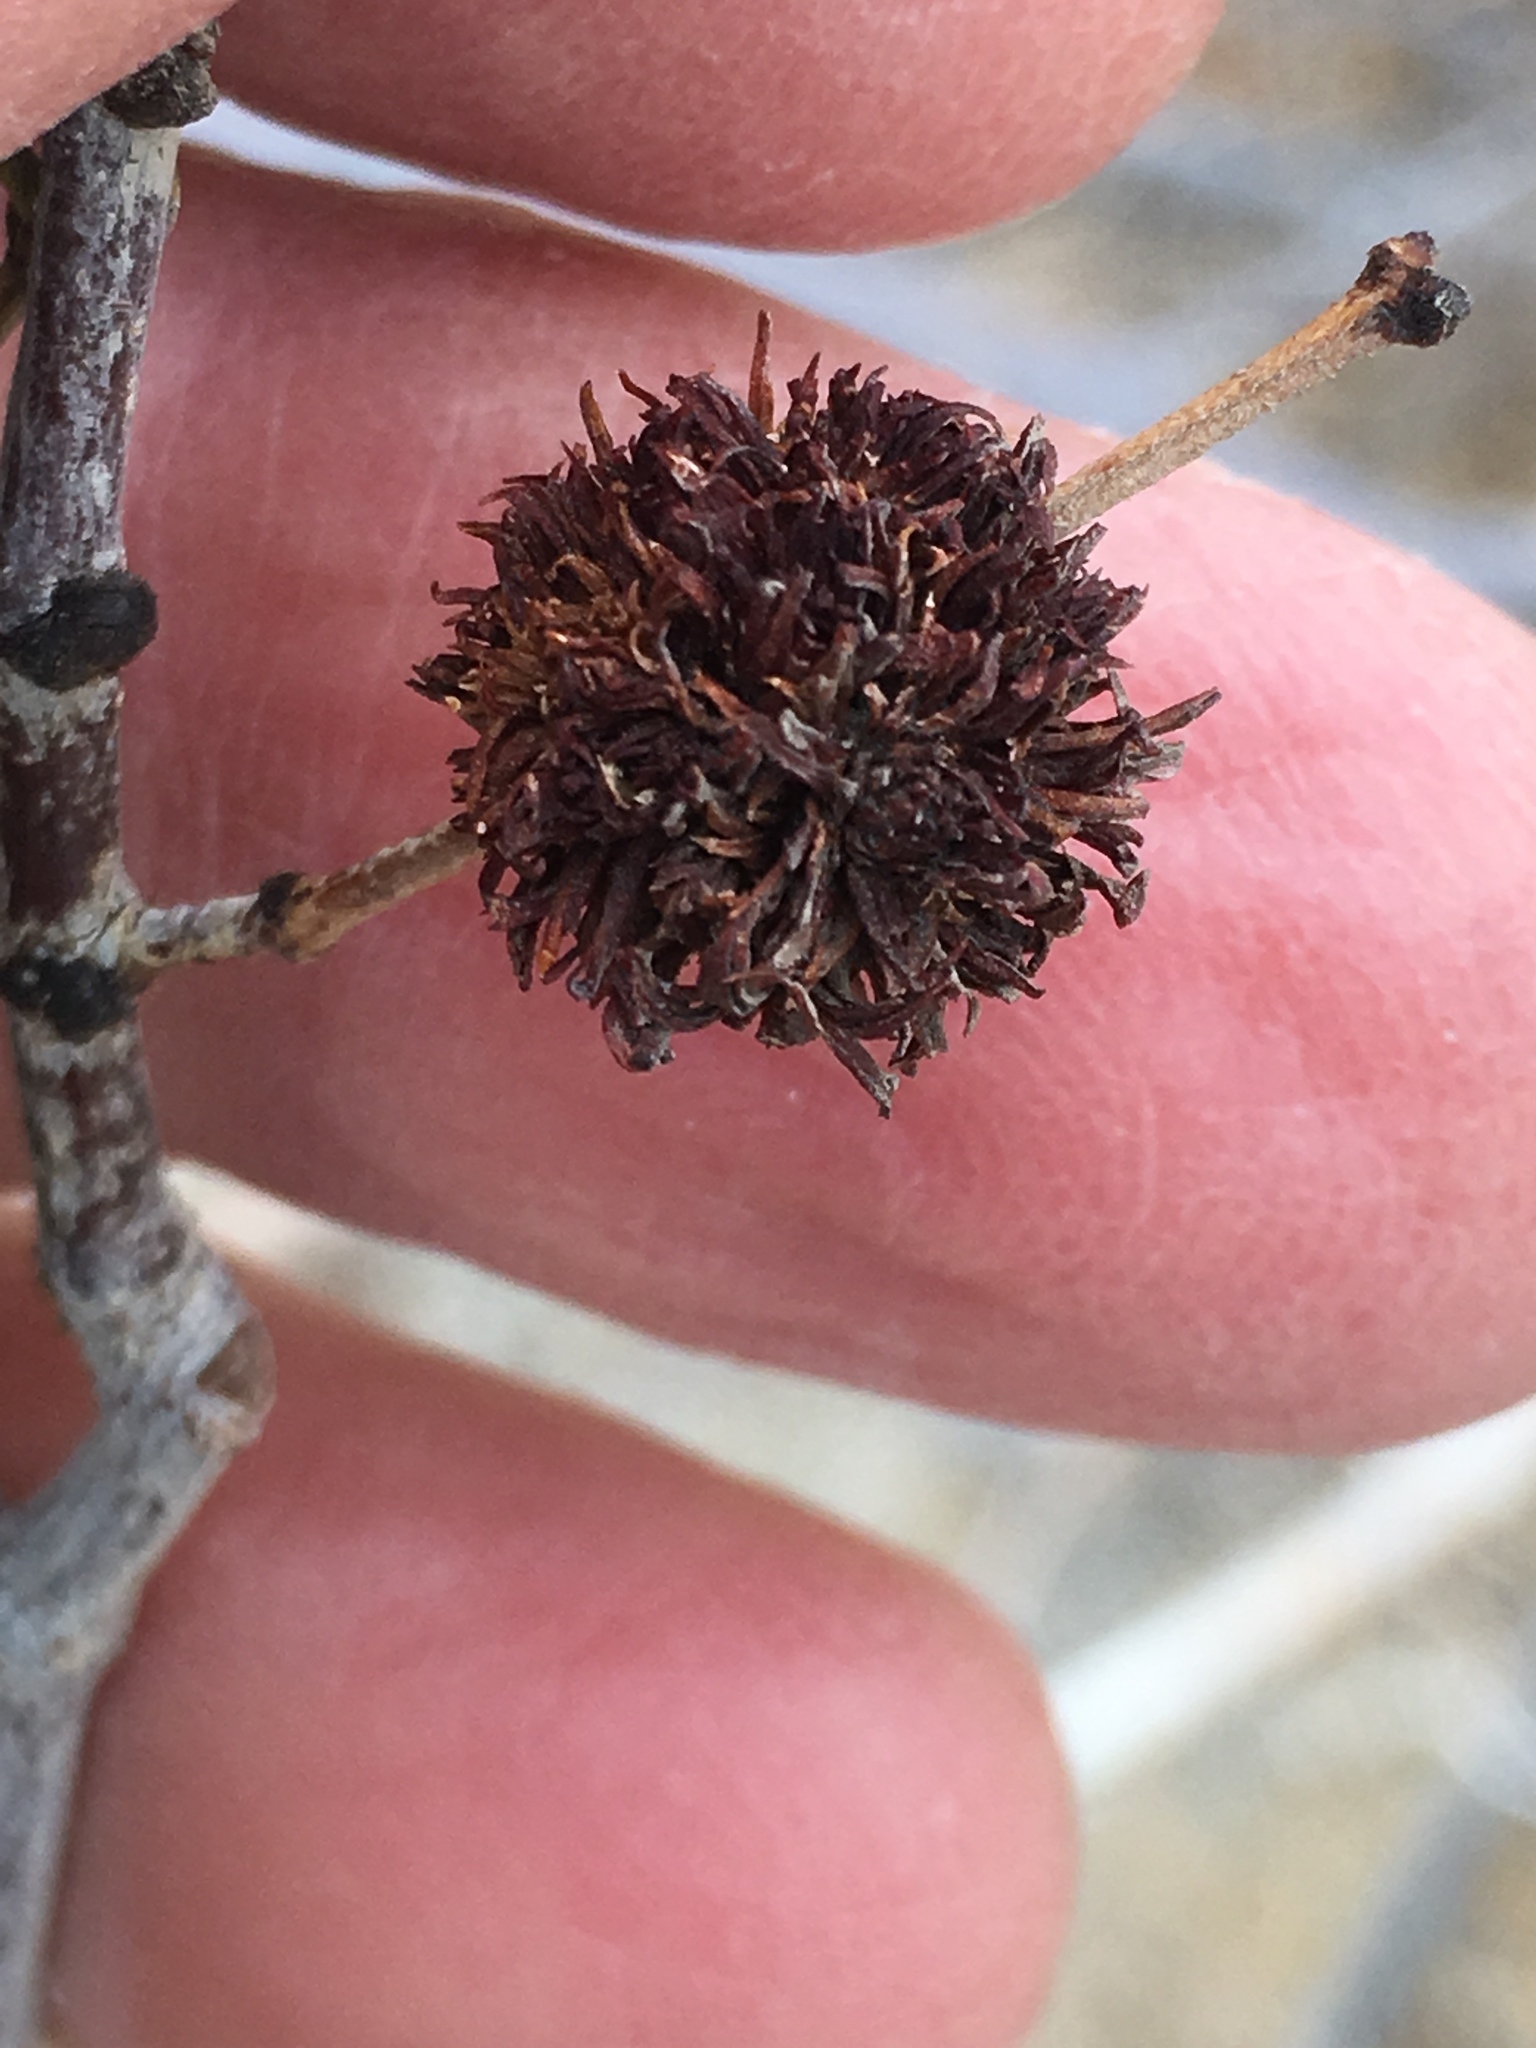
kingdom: Animalia
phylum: Arthropoda
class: Insecta
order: Diptera
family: Cecidomyiidae
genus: Asphondylia
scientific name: Asphondylia auripila
